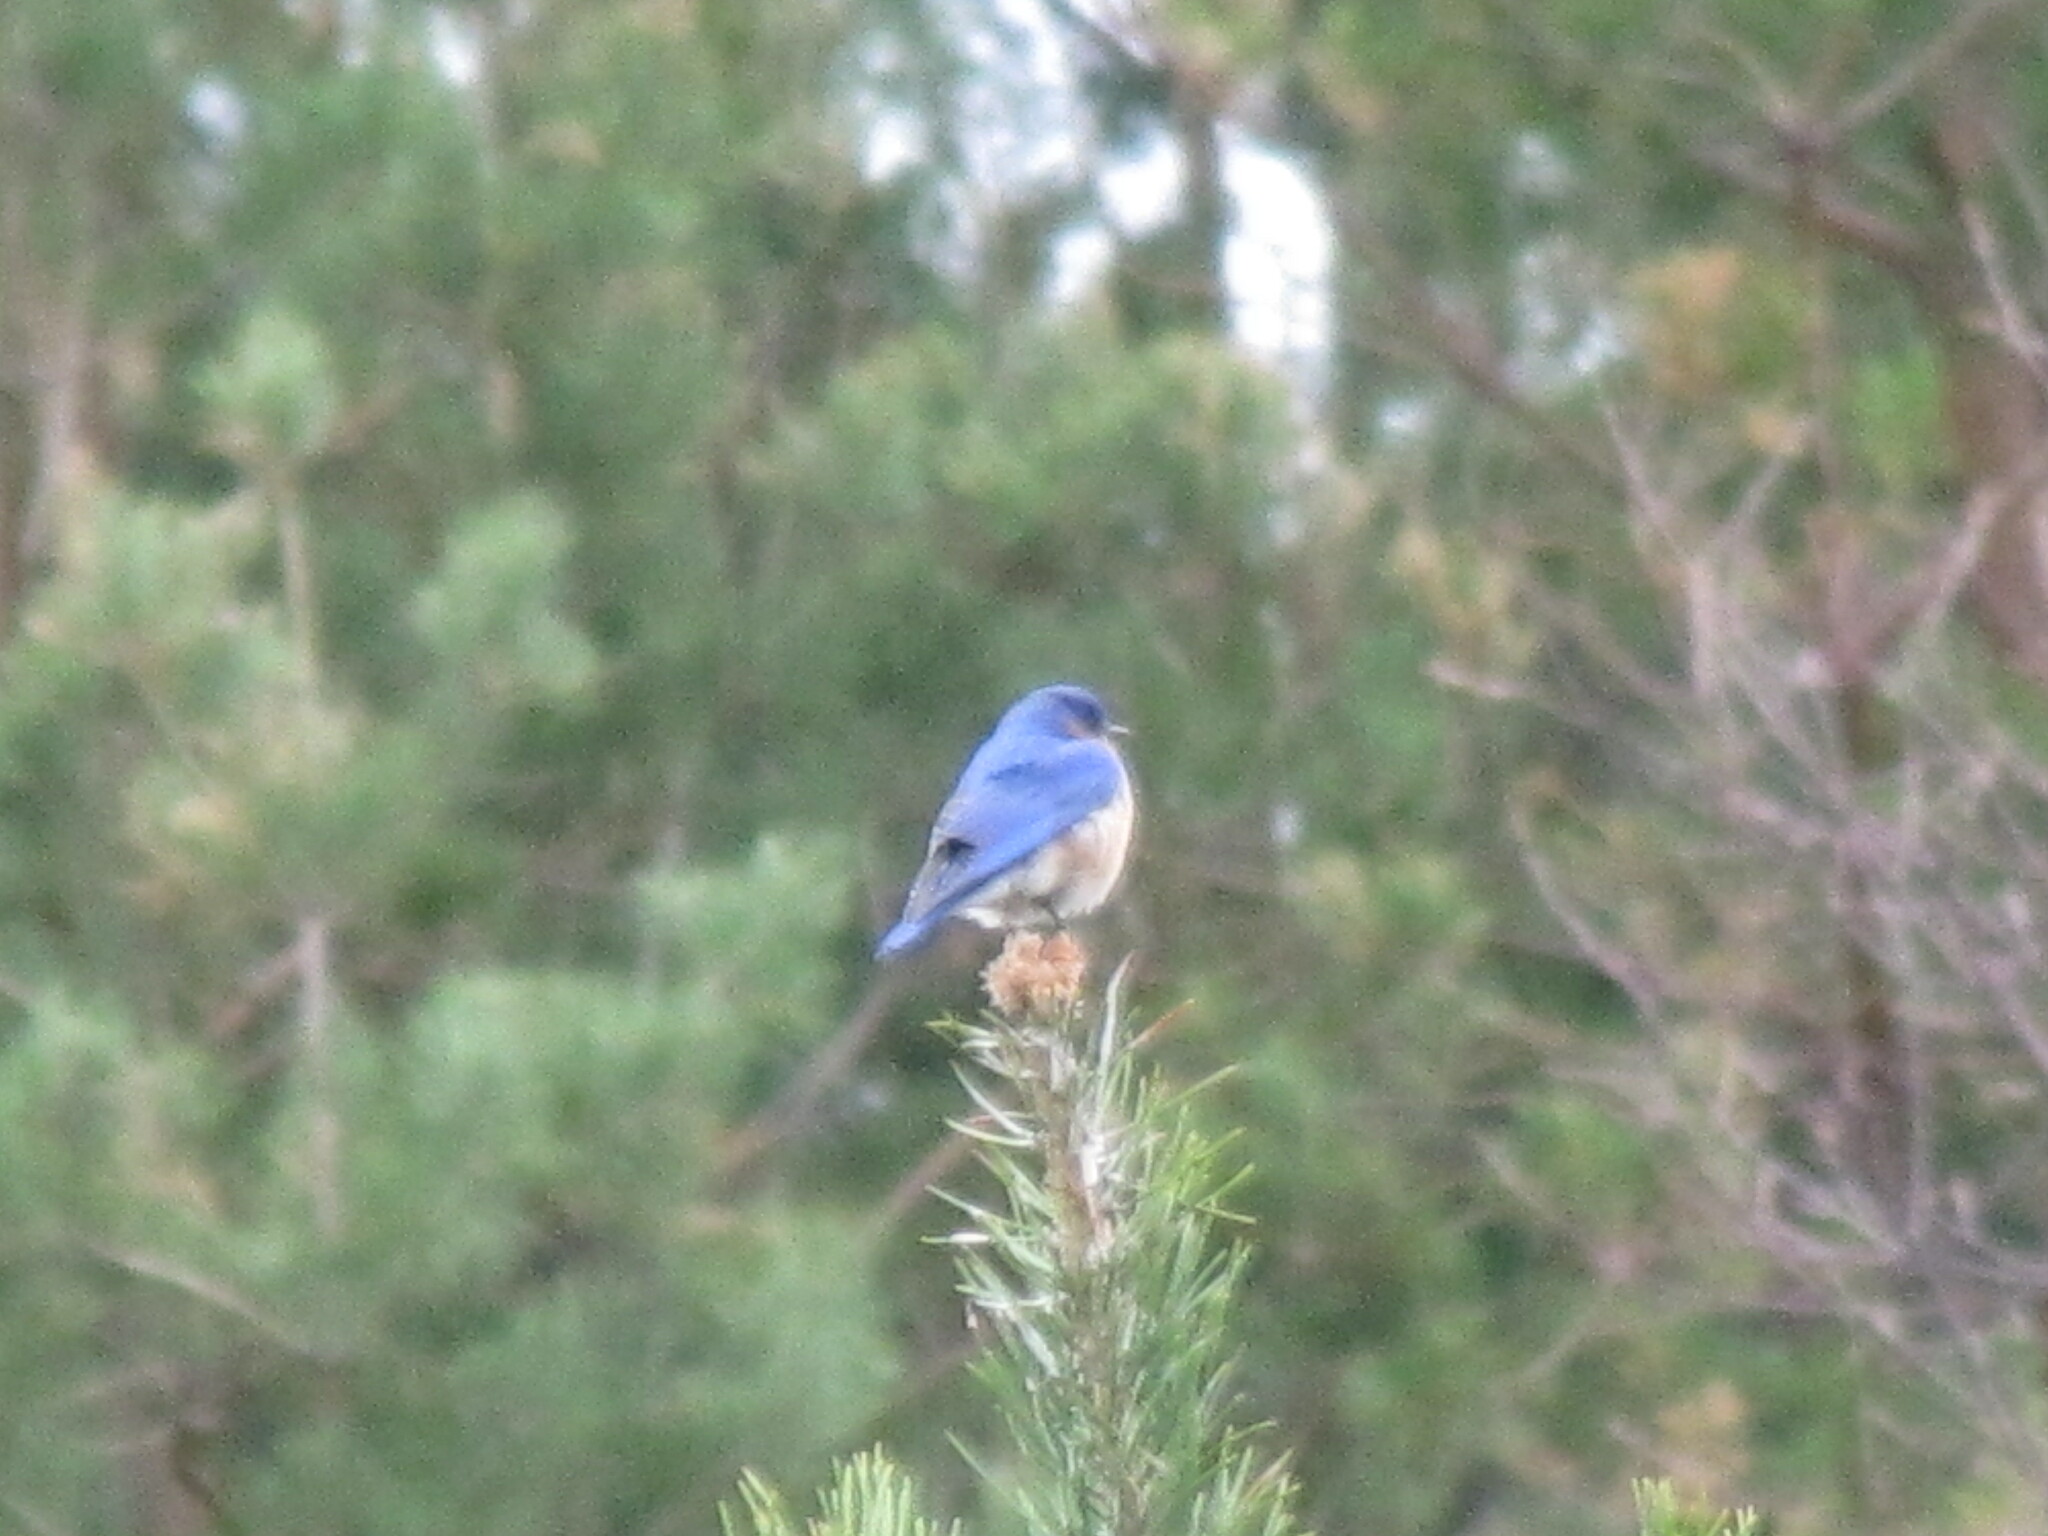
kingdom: Animalia
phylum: Chordata
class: Aves
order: Passeriformes
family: Turdidae
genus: Sialia
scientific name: Sialia sialis
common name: Eastern bluebird
